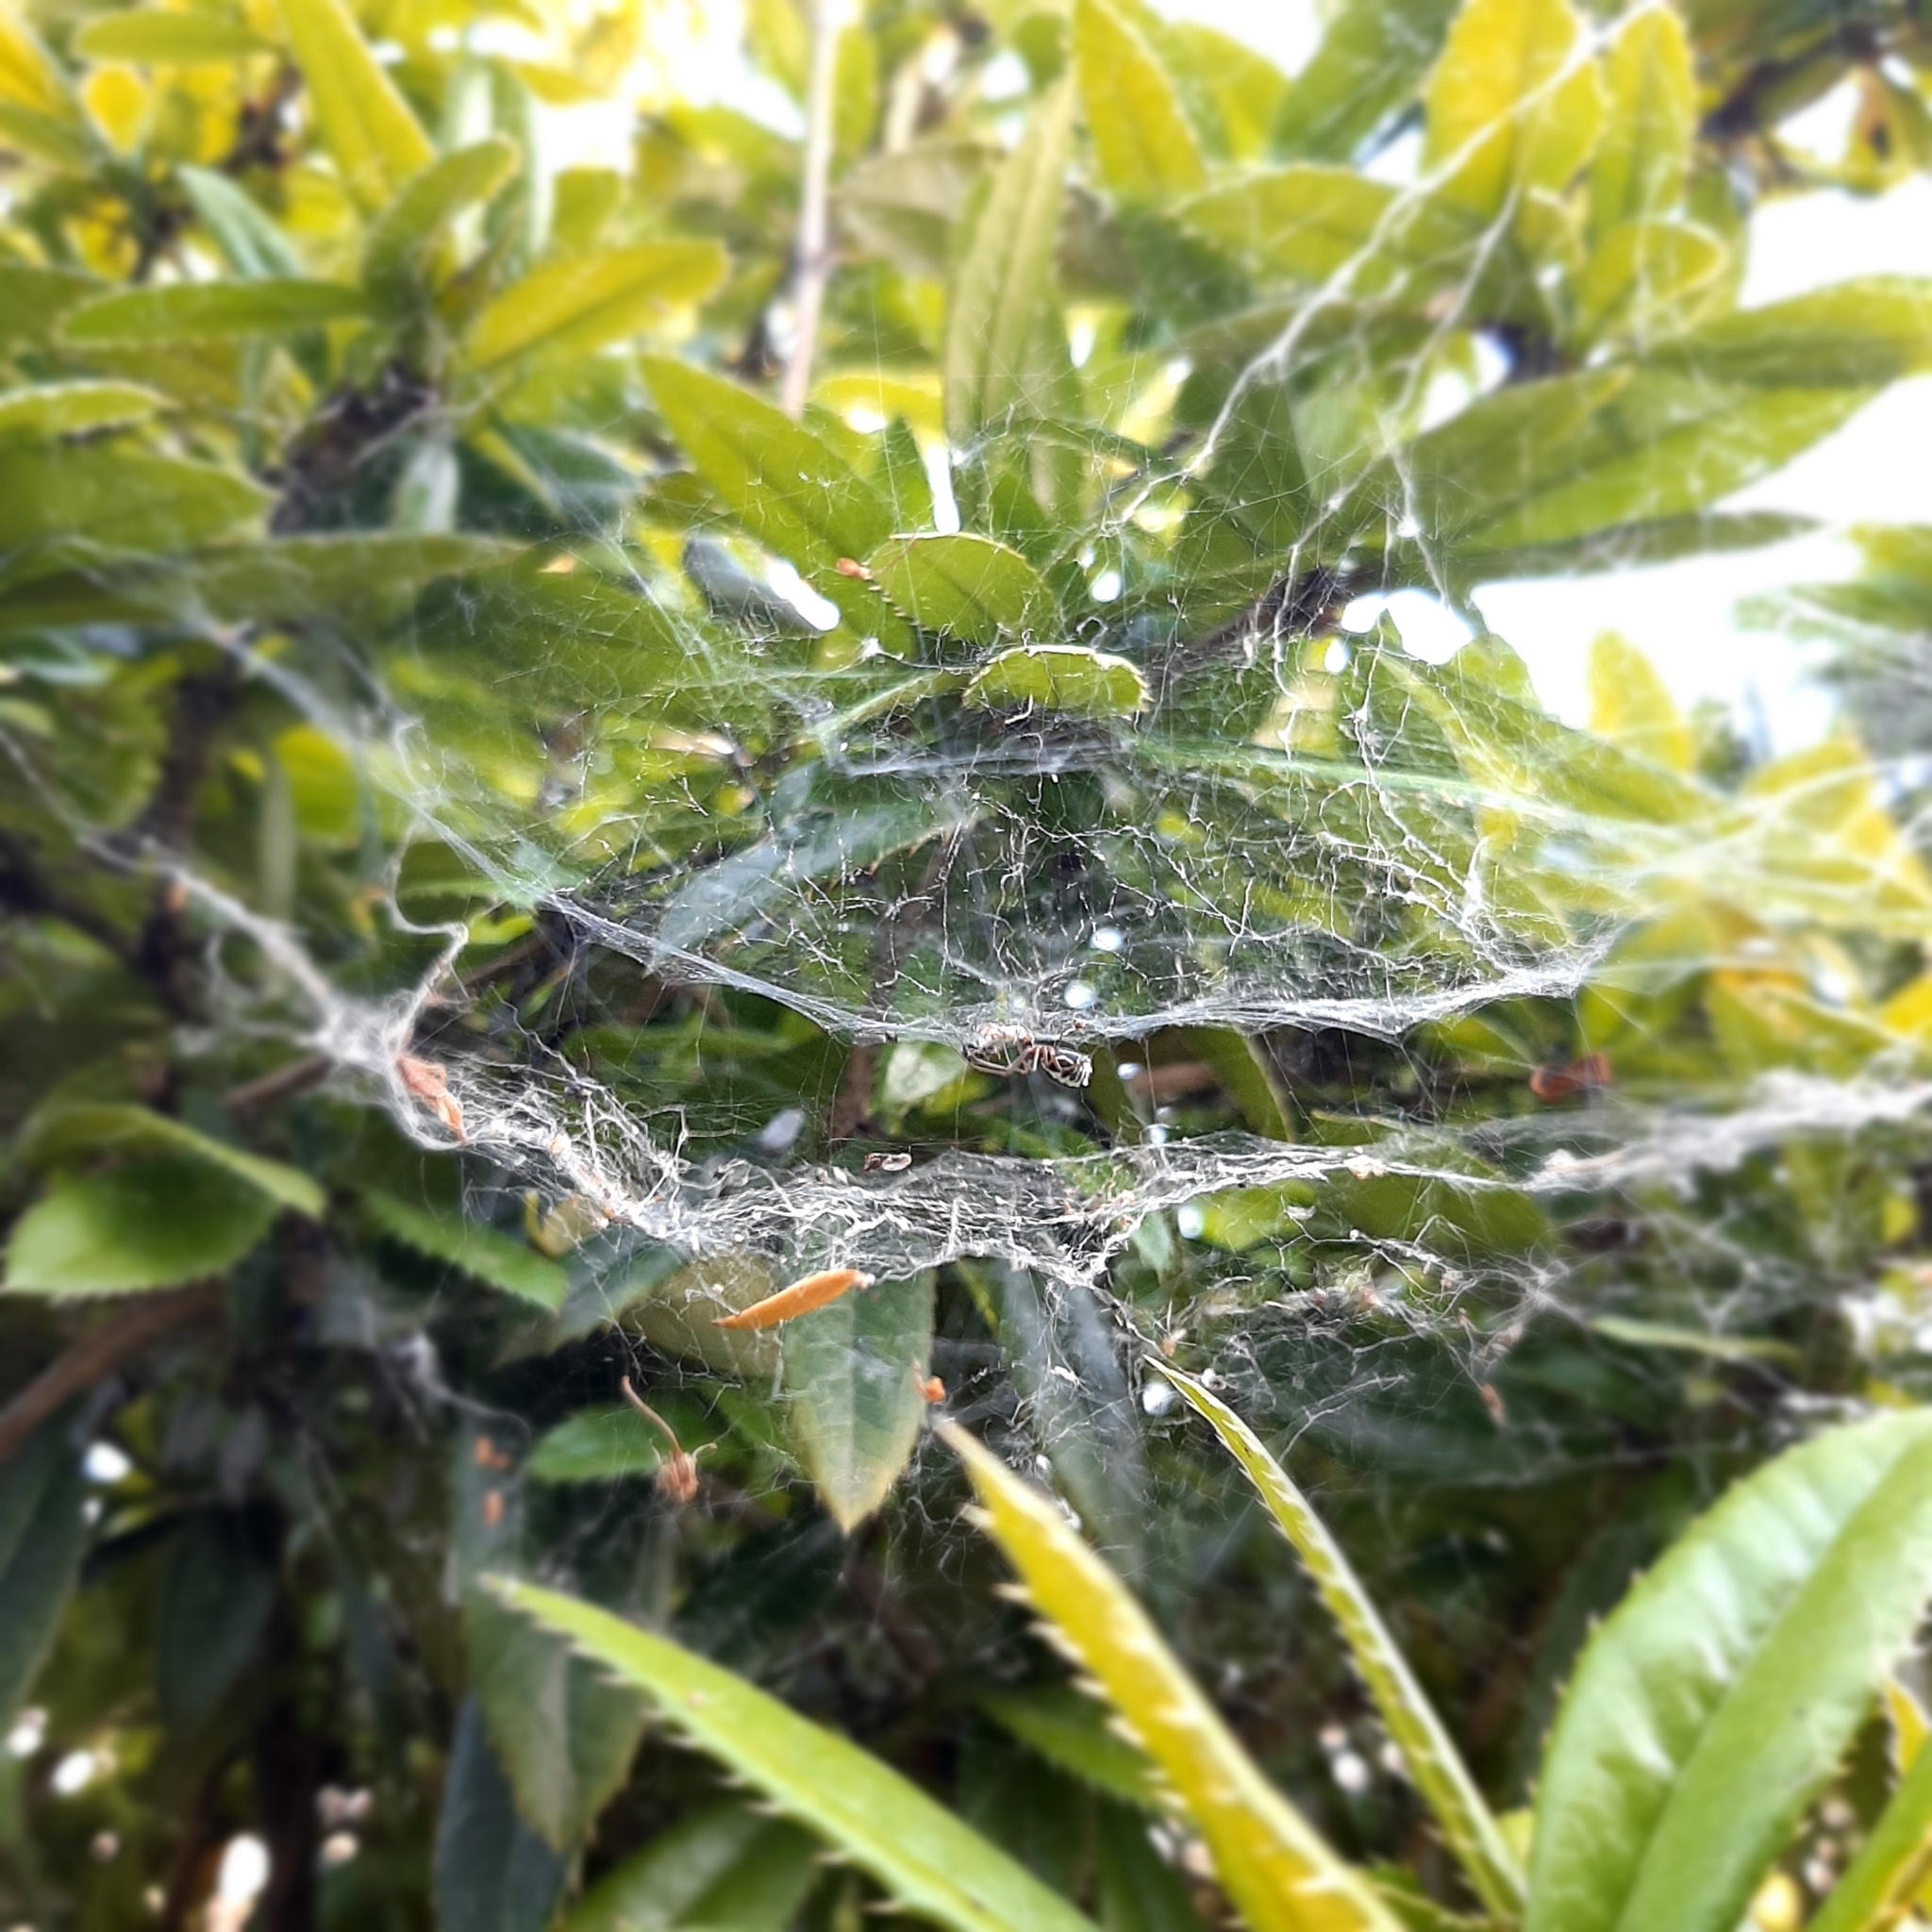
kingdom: Animalia
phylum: Arthropoda
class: Arachnida
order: Araneae
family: Linyphiidae
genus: Frontinellina
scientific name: Frontinellina frutetorum
